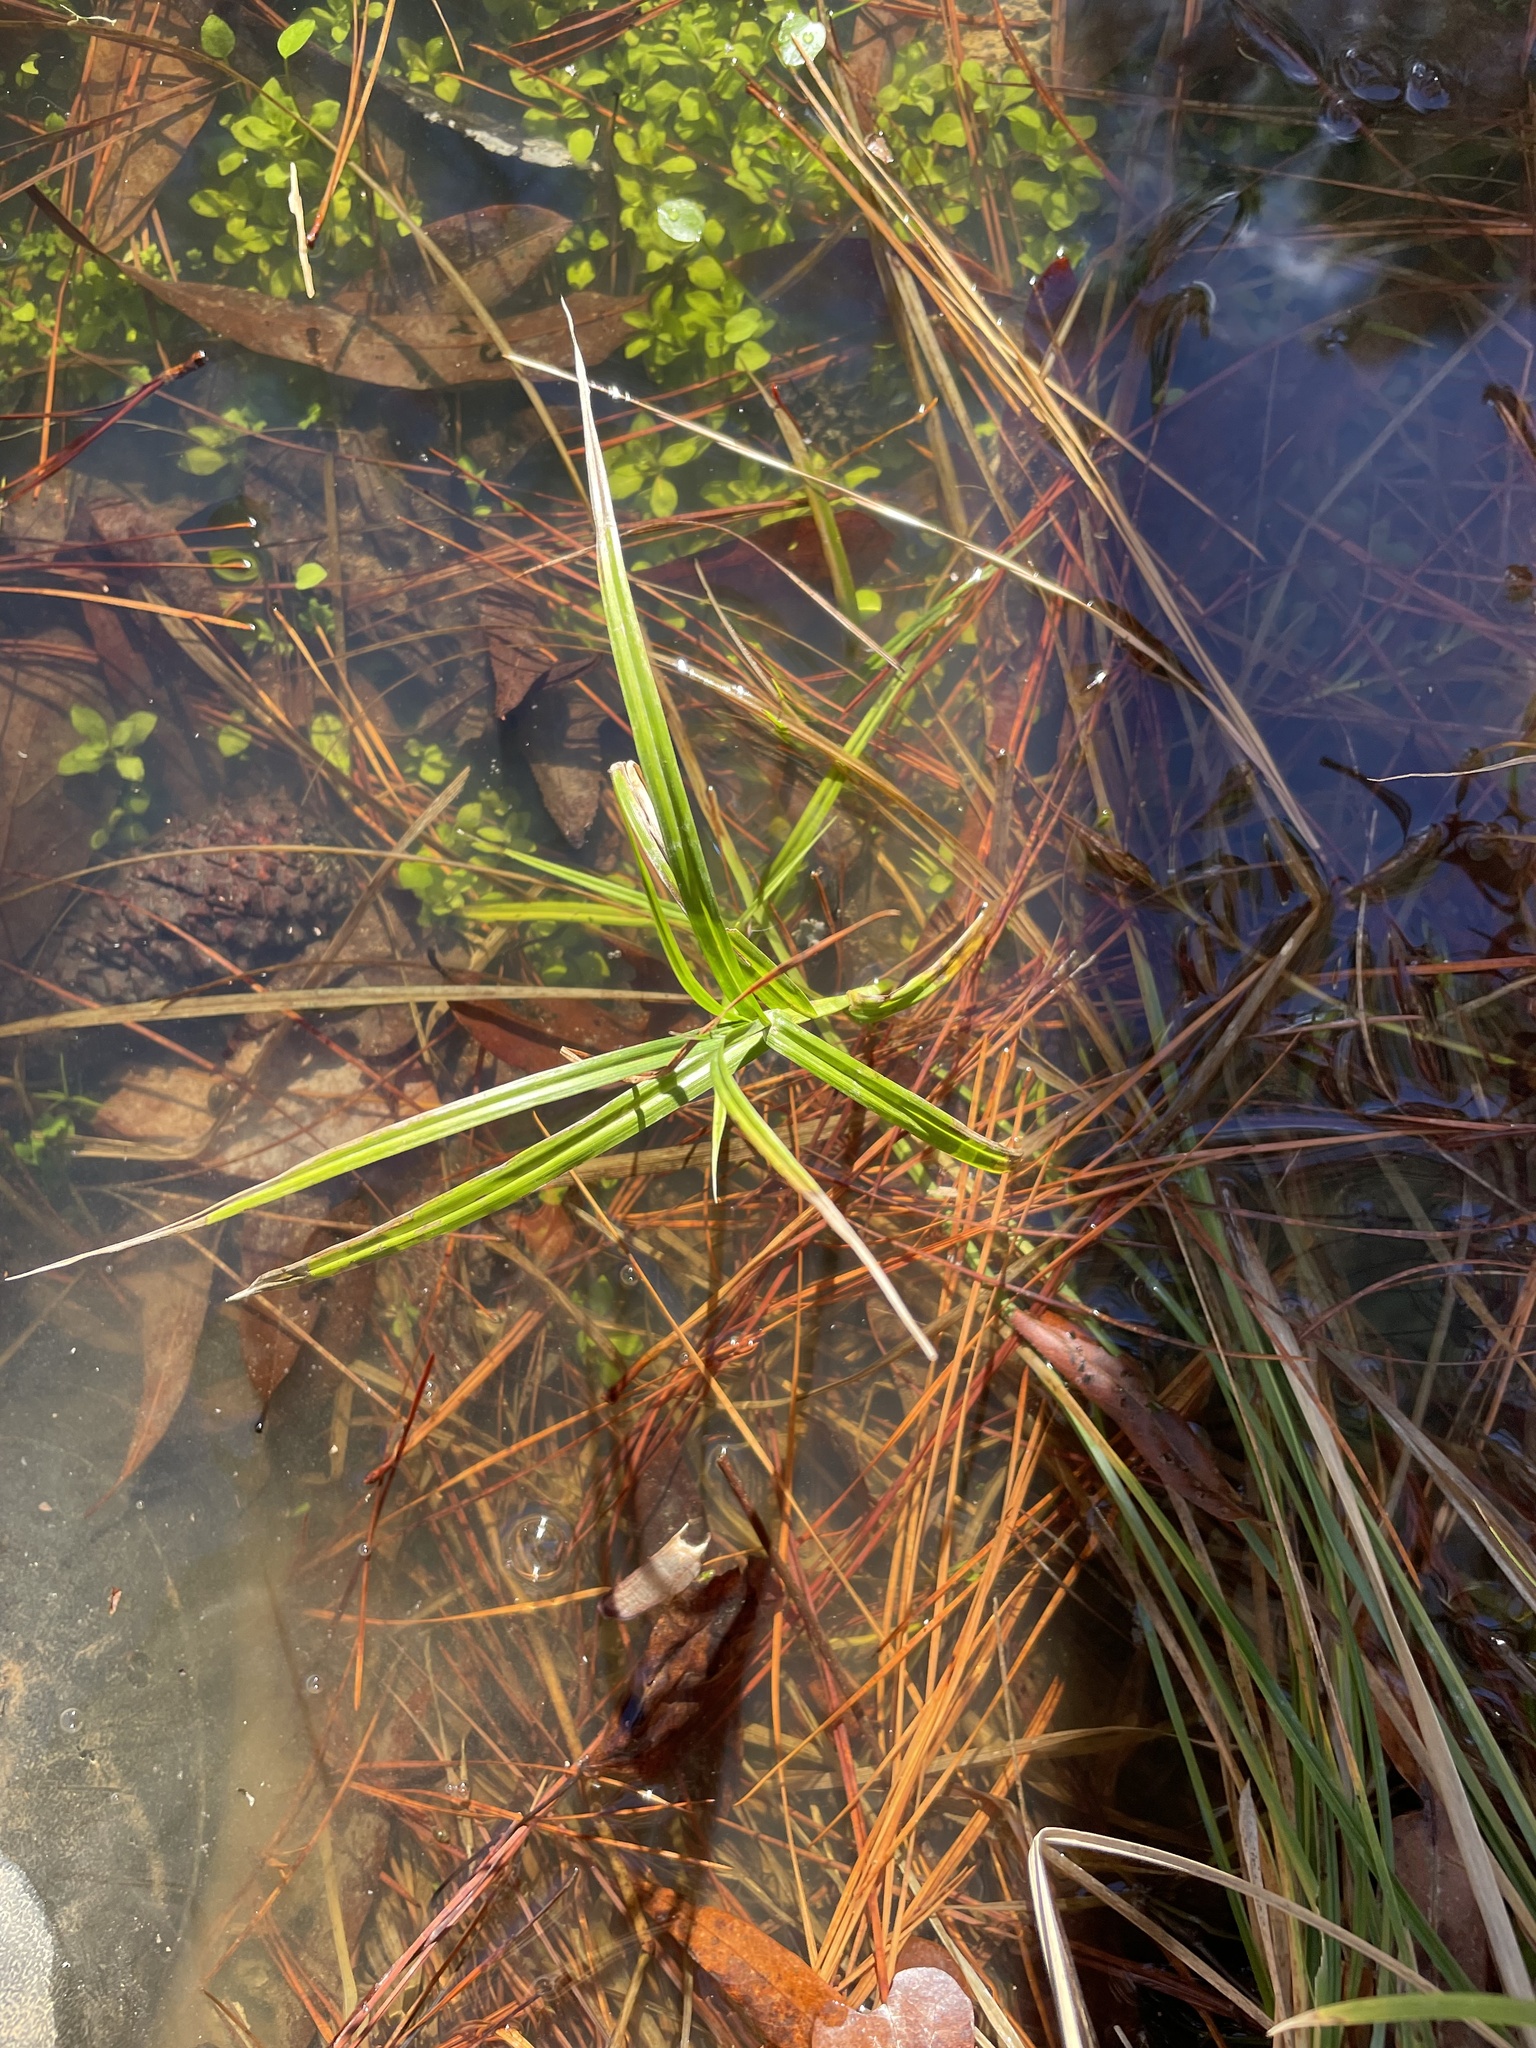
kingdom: Plantae
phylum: Tracheophyta
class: Liliopsida
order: Poales
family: Cyperaceae
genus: Dulichium
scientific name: Dulichium arundinaceum
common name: Three-way sedge
